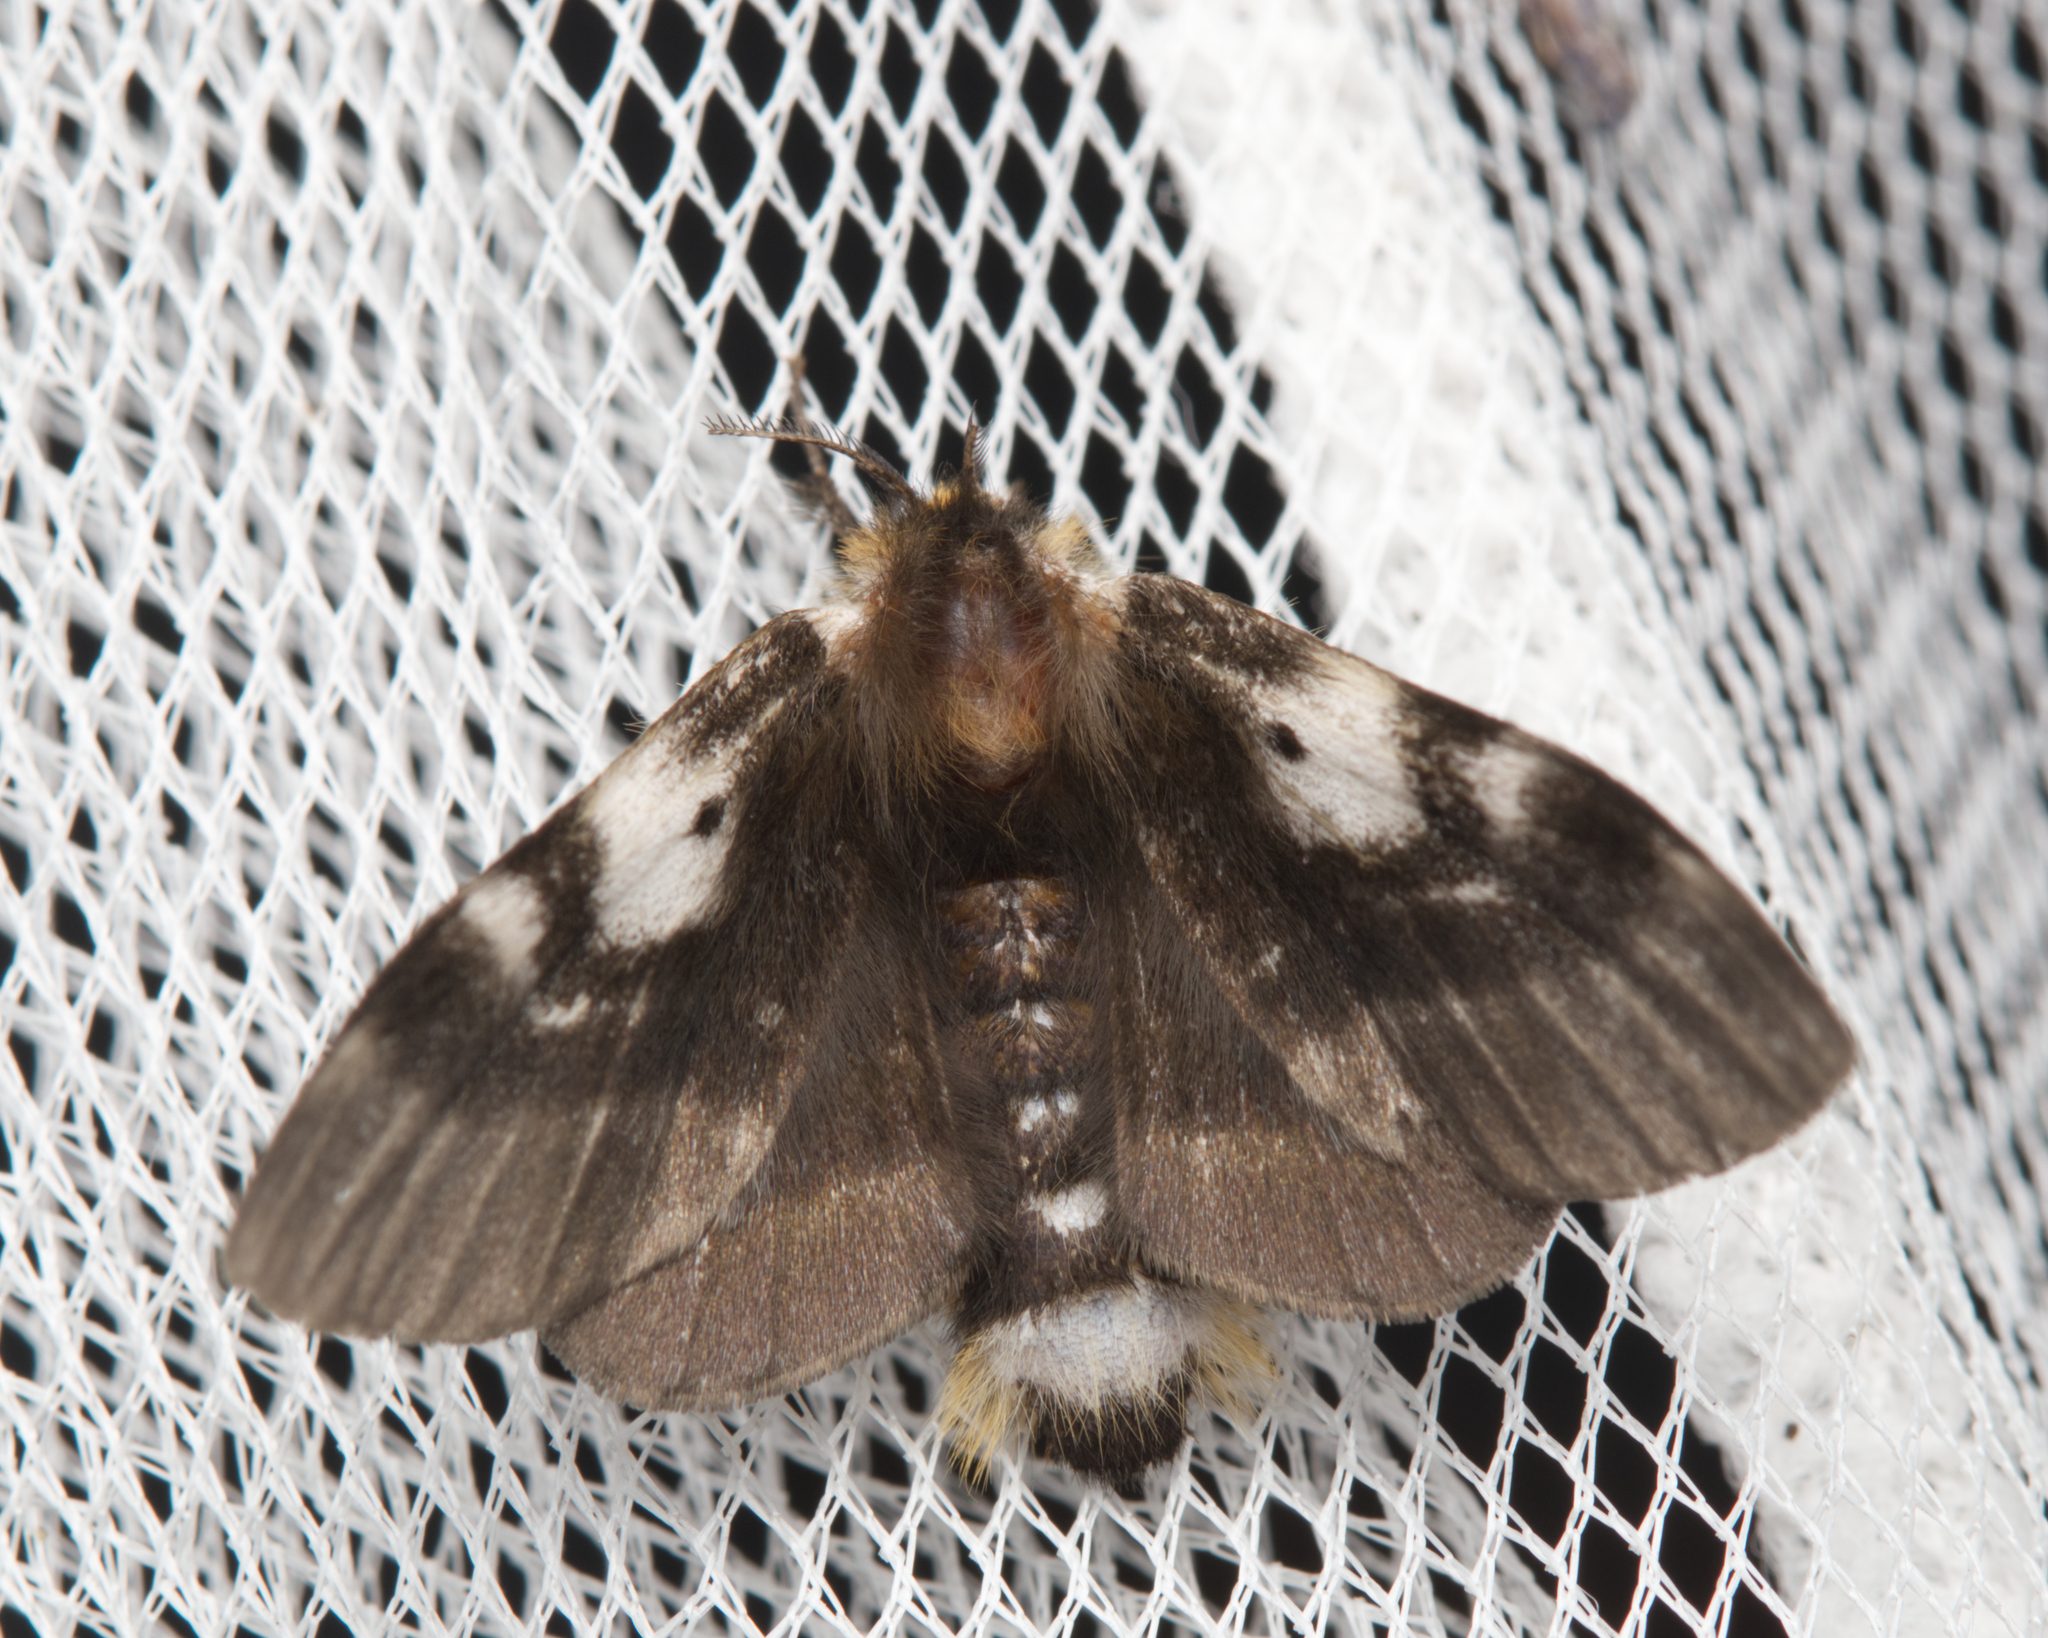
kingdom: Animalia
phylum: Arthropoda
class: Insecta
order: Lepidoptera
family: Anthelidae
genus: Nataxa
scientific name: Nataxa flavescens
